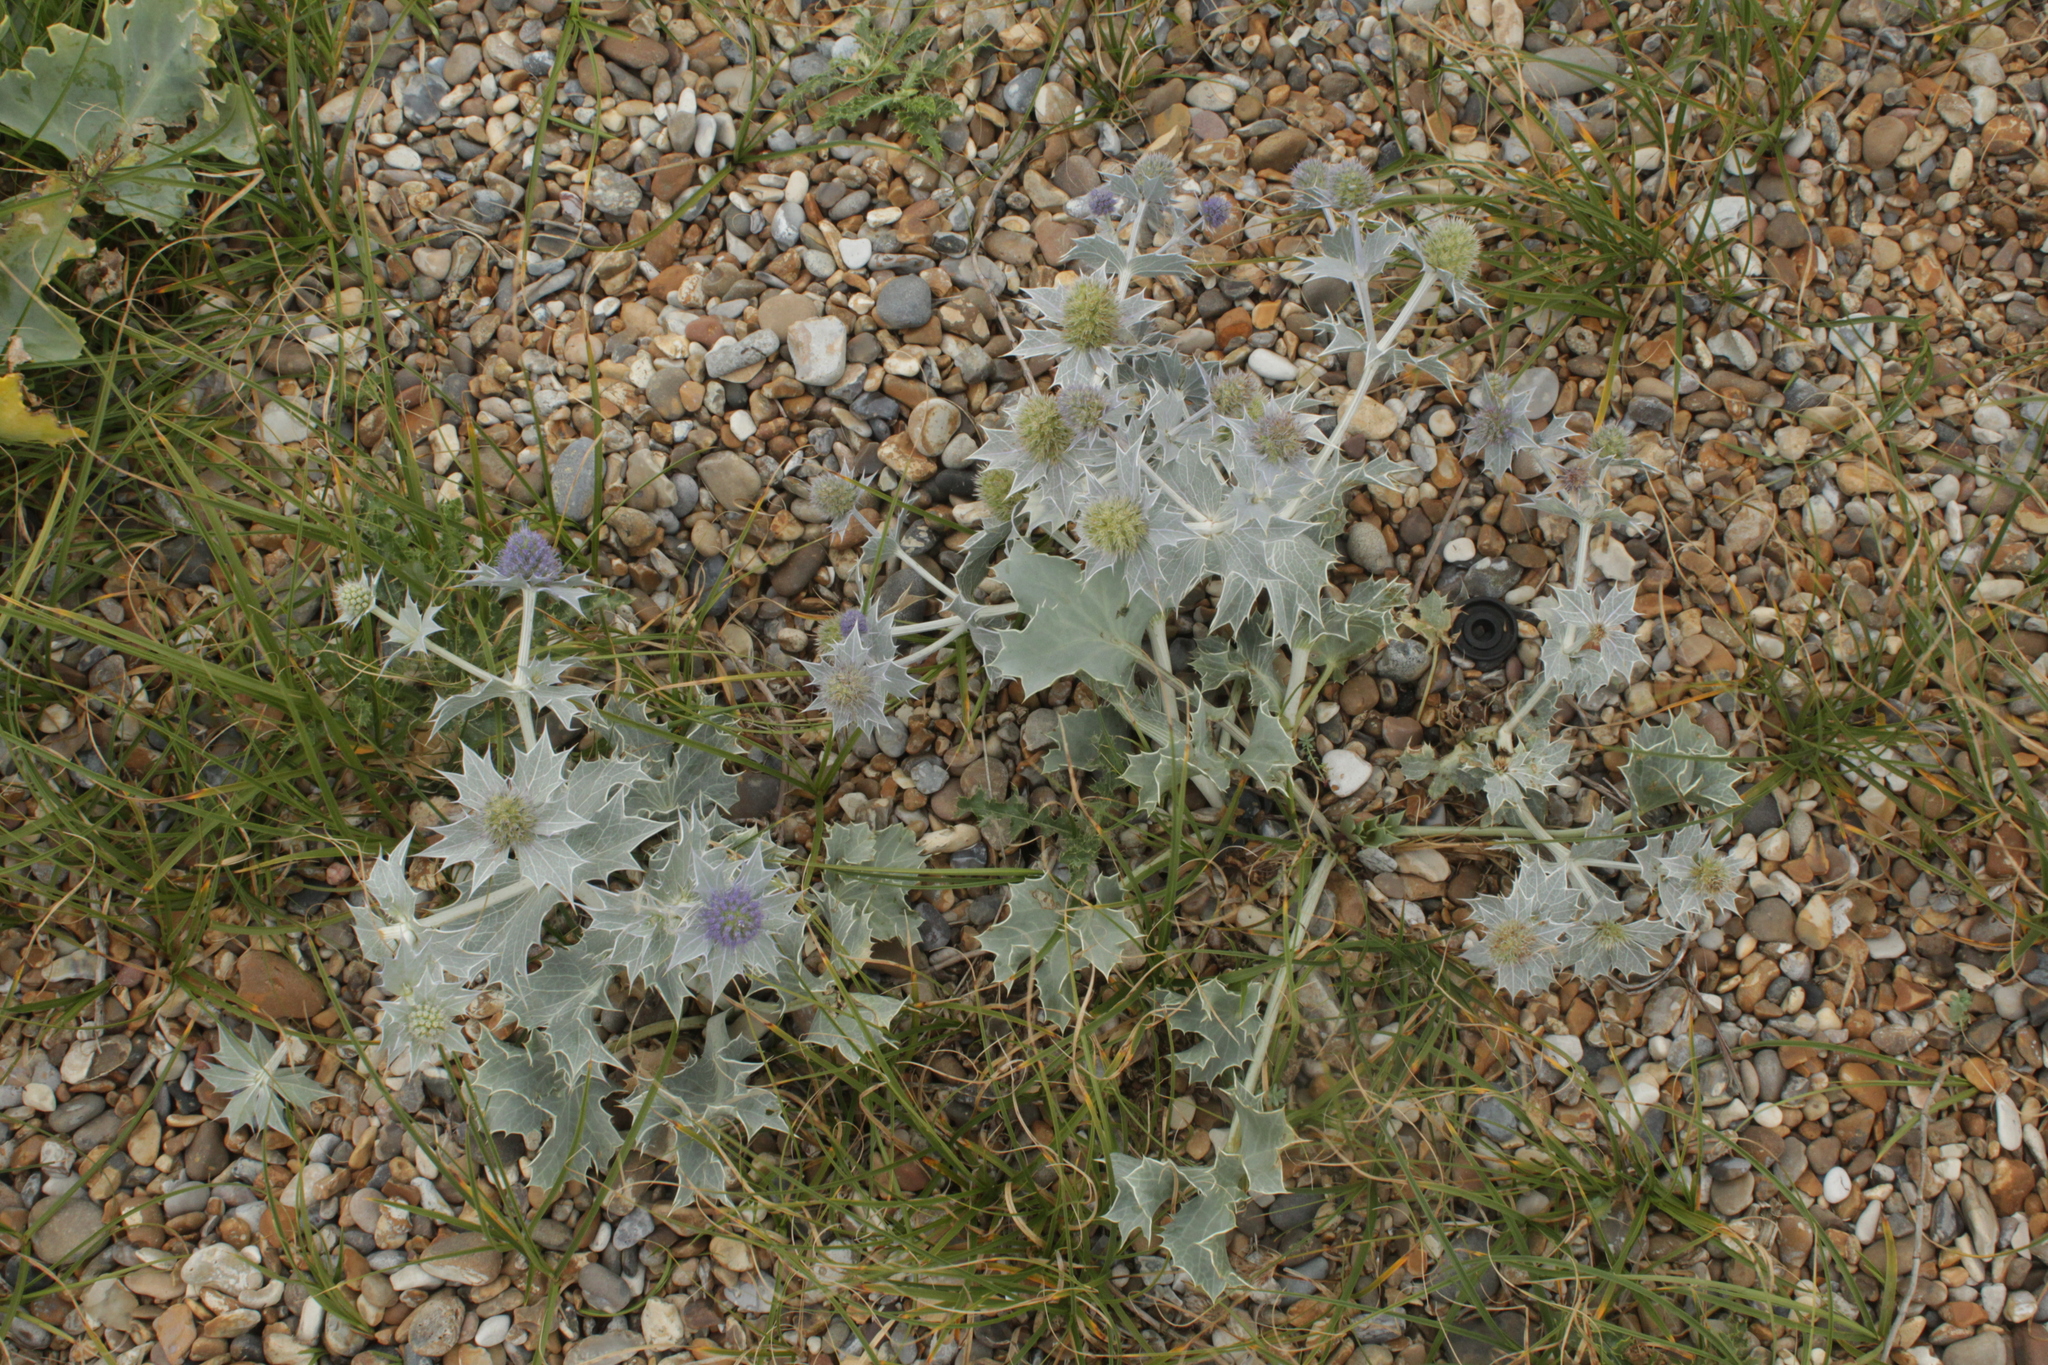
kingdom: Plantae
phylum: Tracheophyta
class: Magnoliopsida
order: Apiales
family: Apiaceae
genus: Eryngium
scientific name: Eryngium maritimum
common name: Sea-holly
